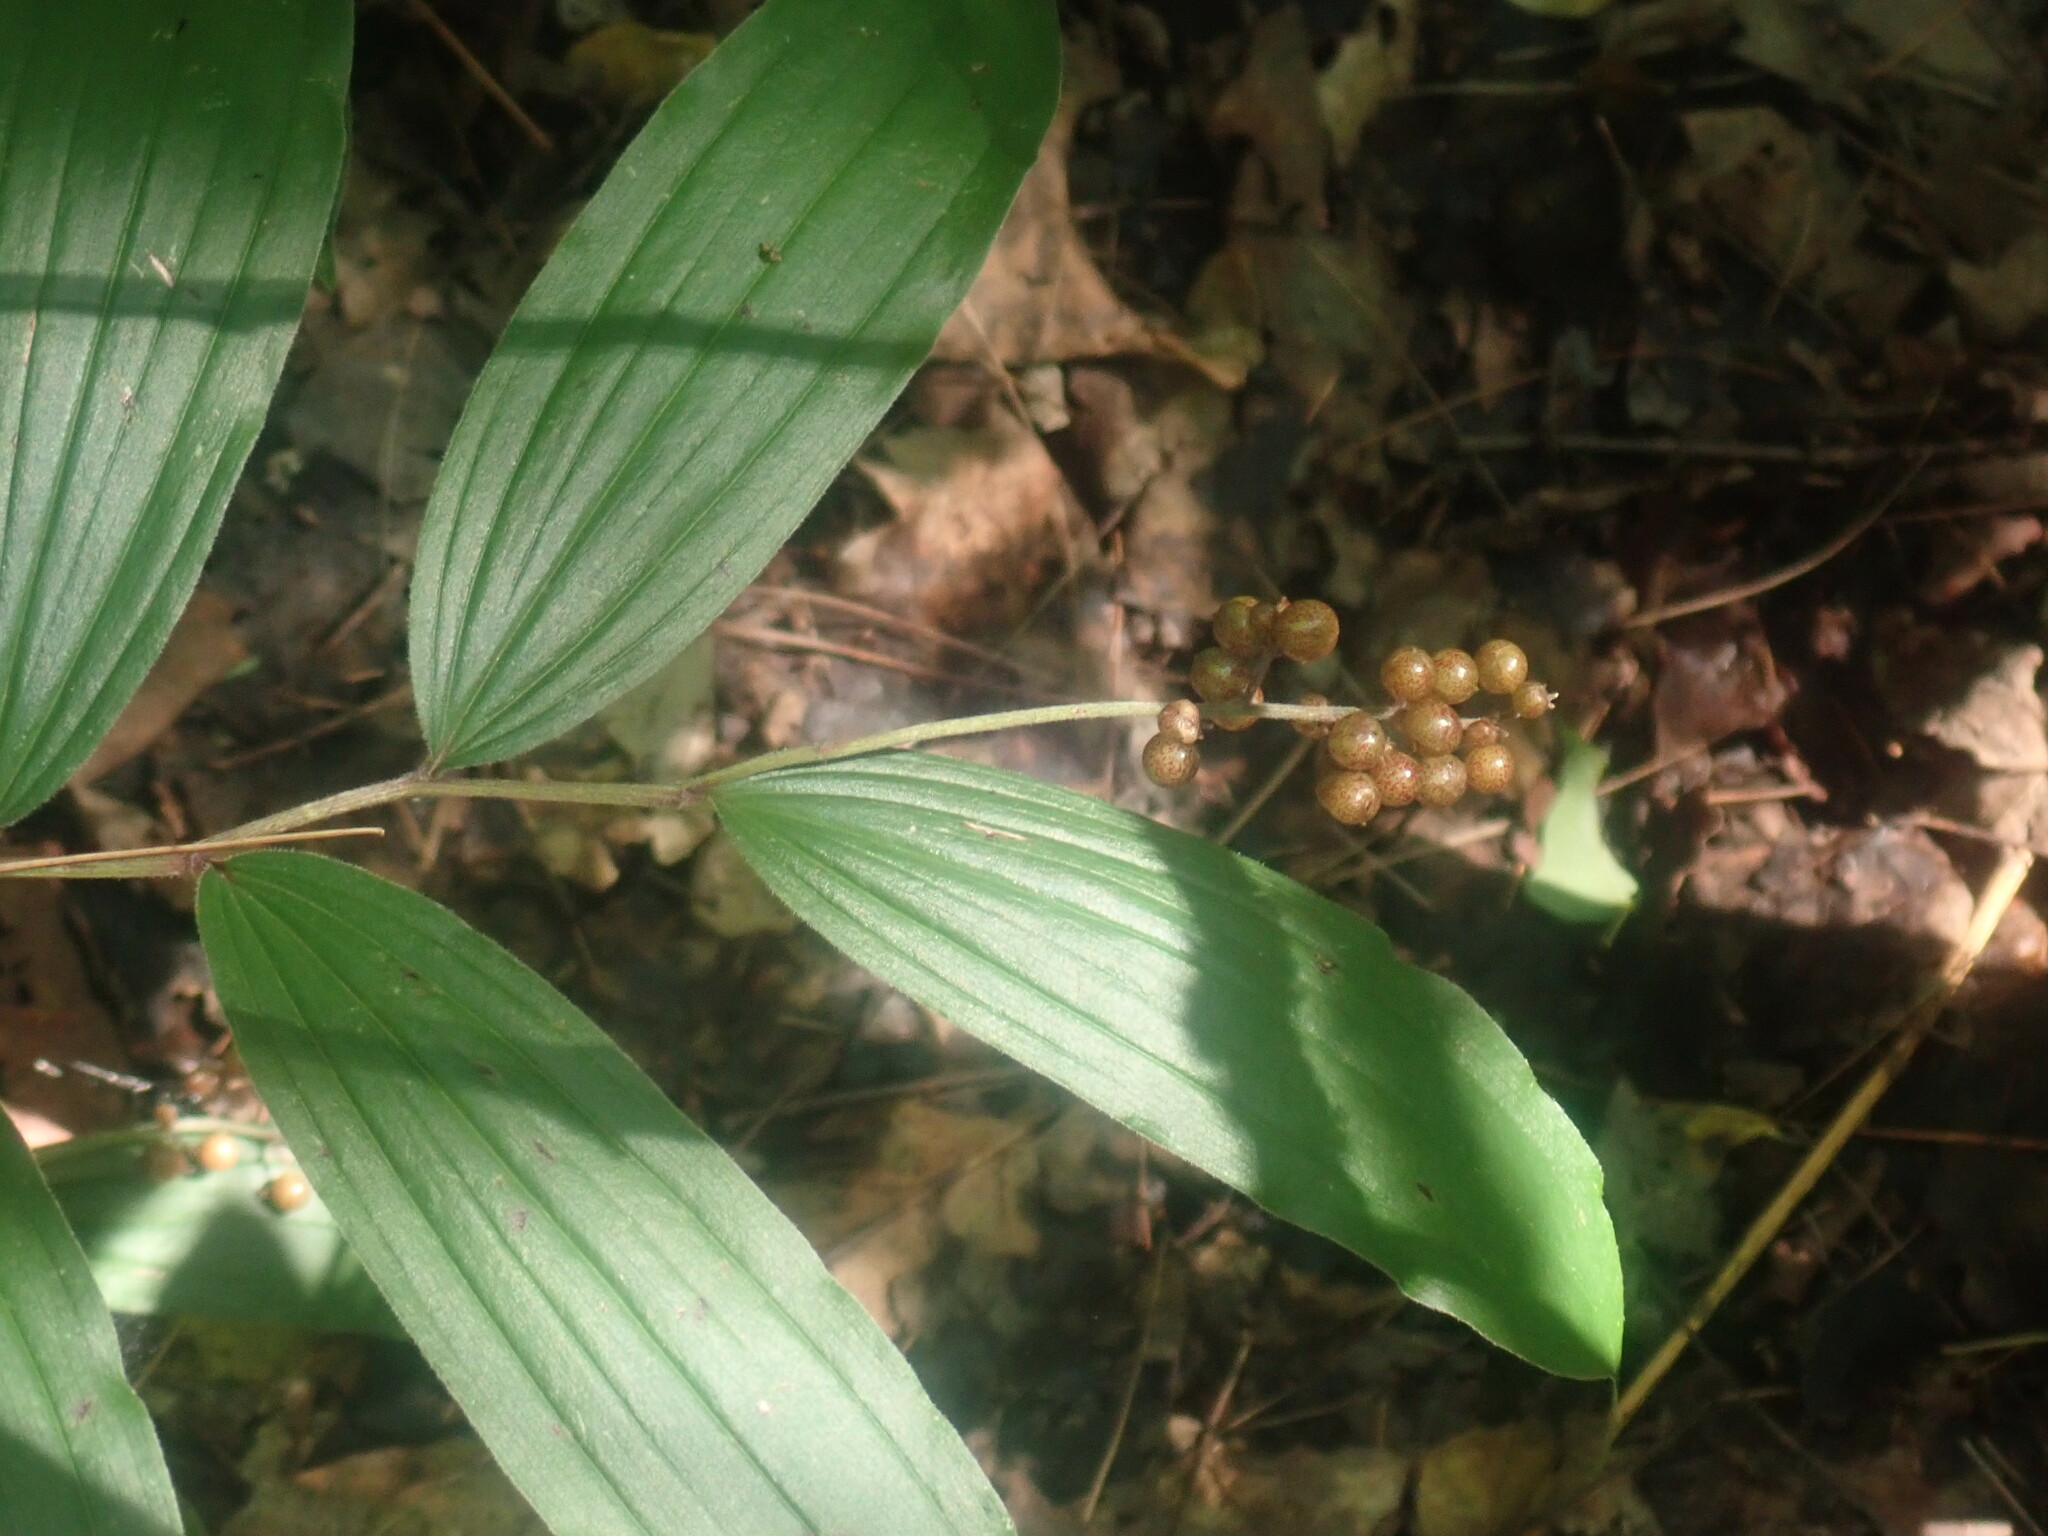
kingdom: Plantae
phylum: Tracheophyta
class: Liliopsida
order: Asparagales
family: Asparagaceae
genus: Maianthemum
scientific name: Maianthemum racemosum
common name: False spikenard
